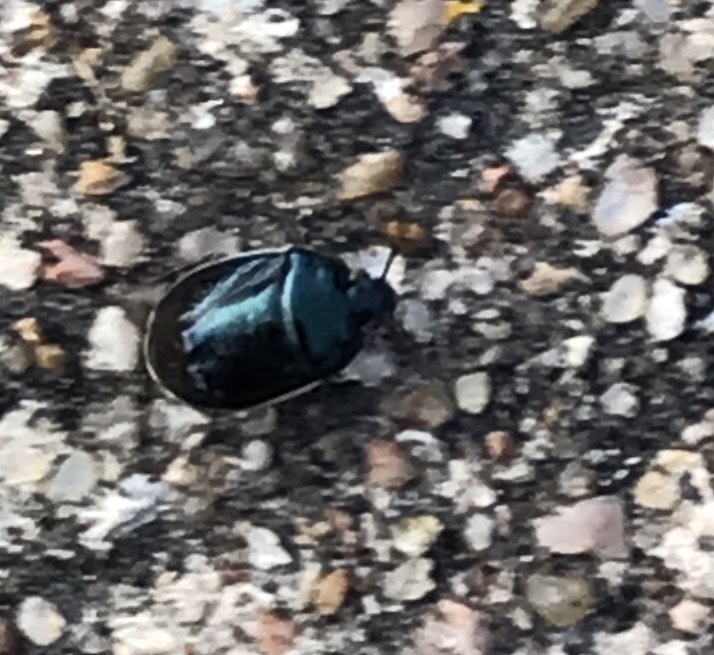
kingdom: Animalia
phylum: Arthropoda
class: Insecta
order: Hemiptera
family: Cydnidae
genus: Sehirus
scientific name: Sehirus cinctus
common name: White-margined burrower bug
